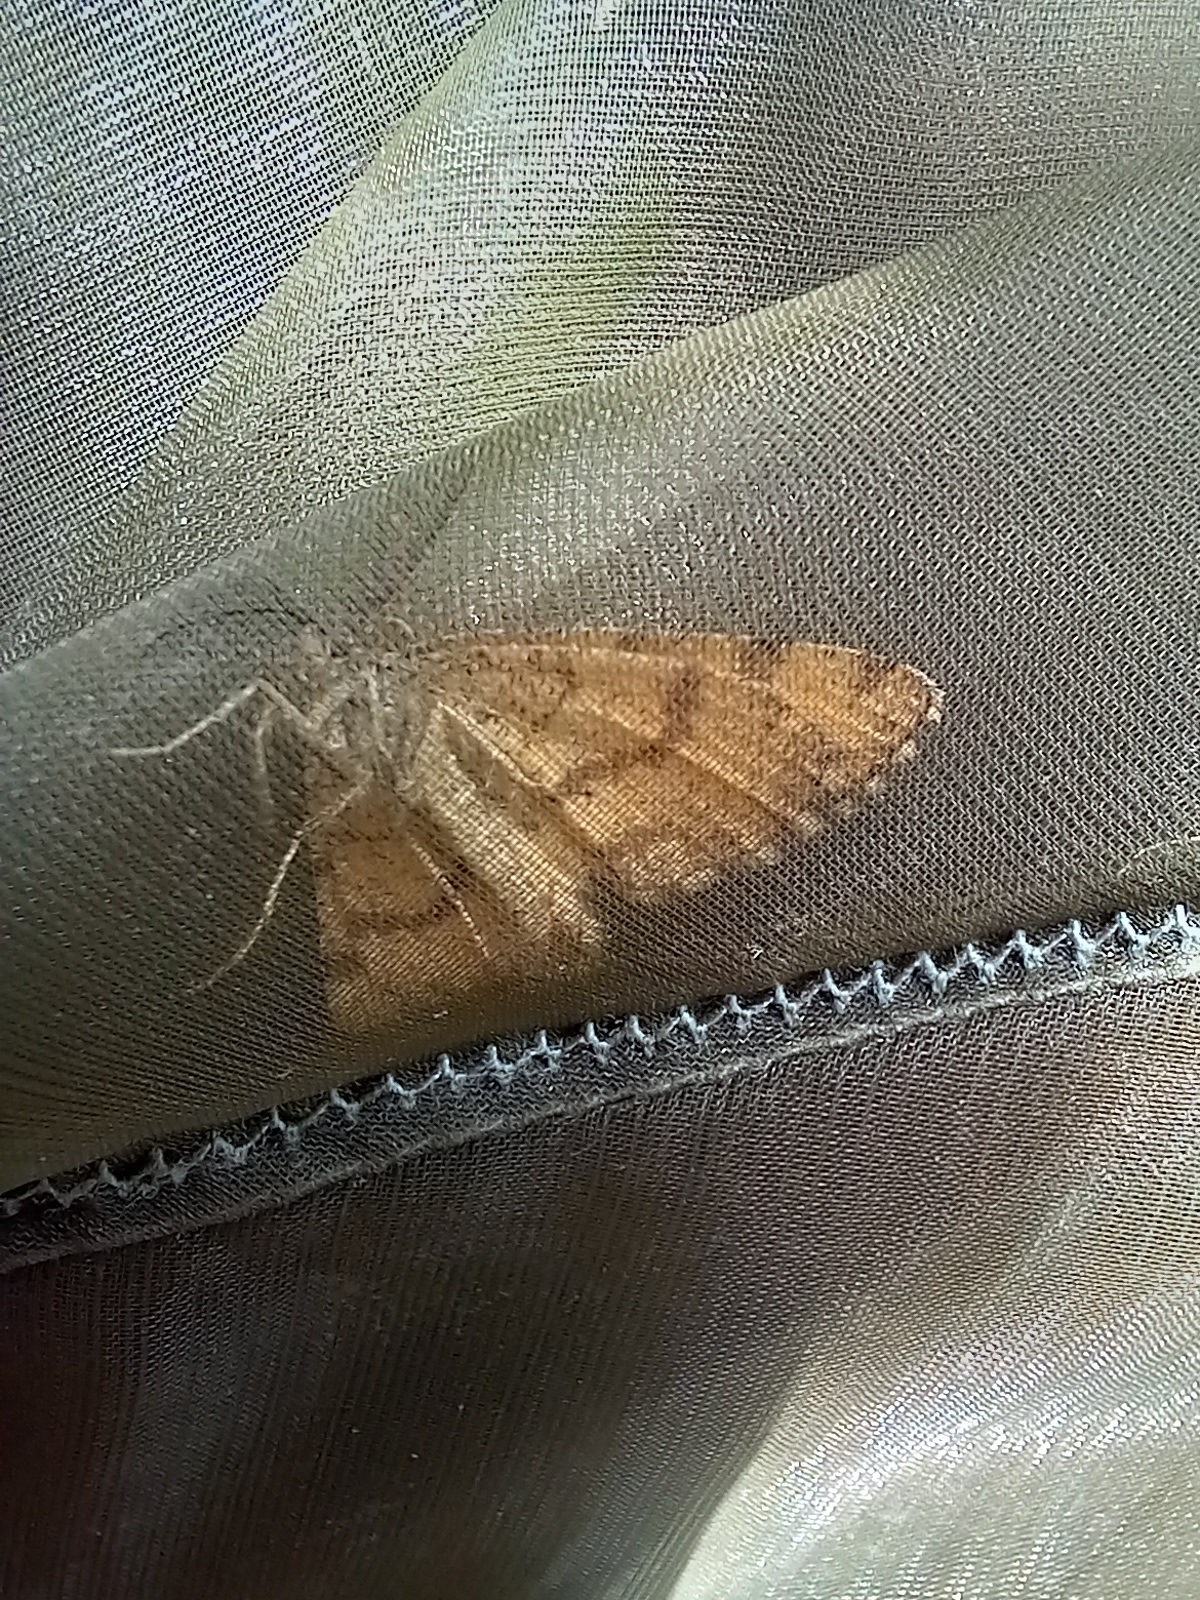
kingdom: Animalia
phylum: Arthropoda
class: Insecta
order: Lepidoptera
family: Geometridae
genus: Ematurga
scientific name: Ematurga atomaria
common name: Common heath
